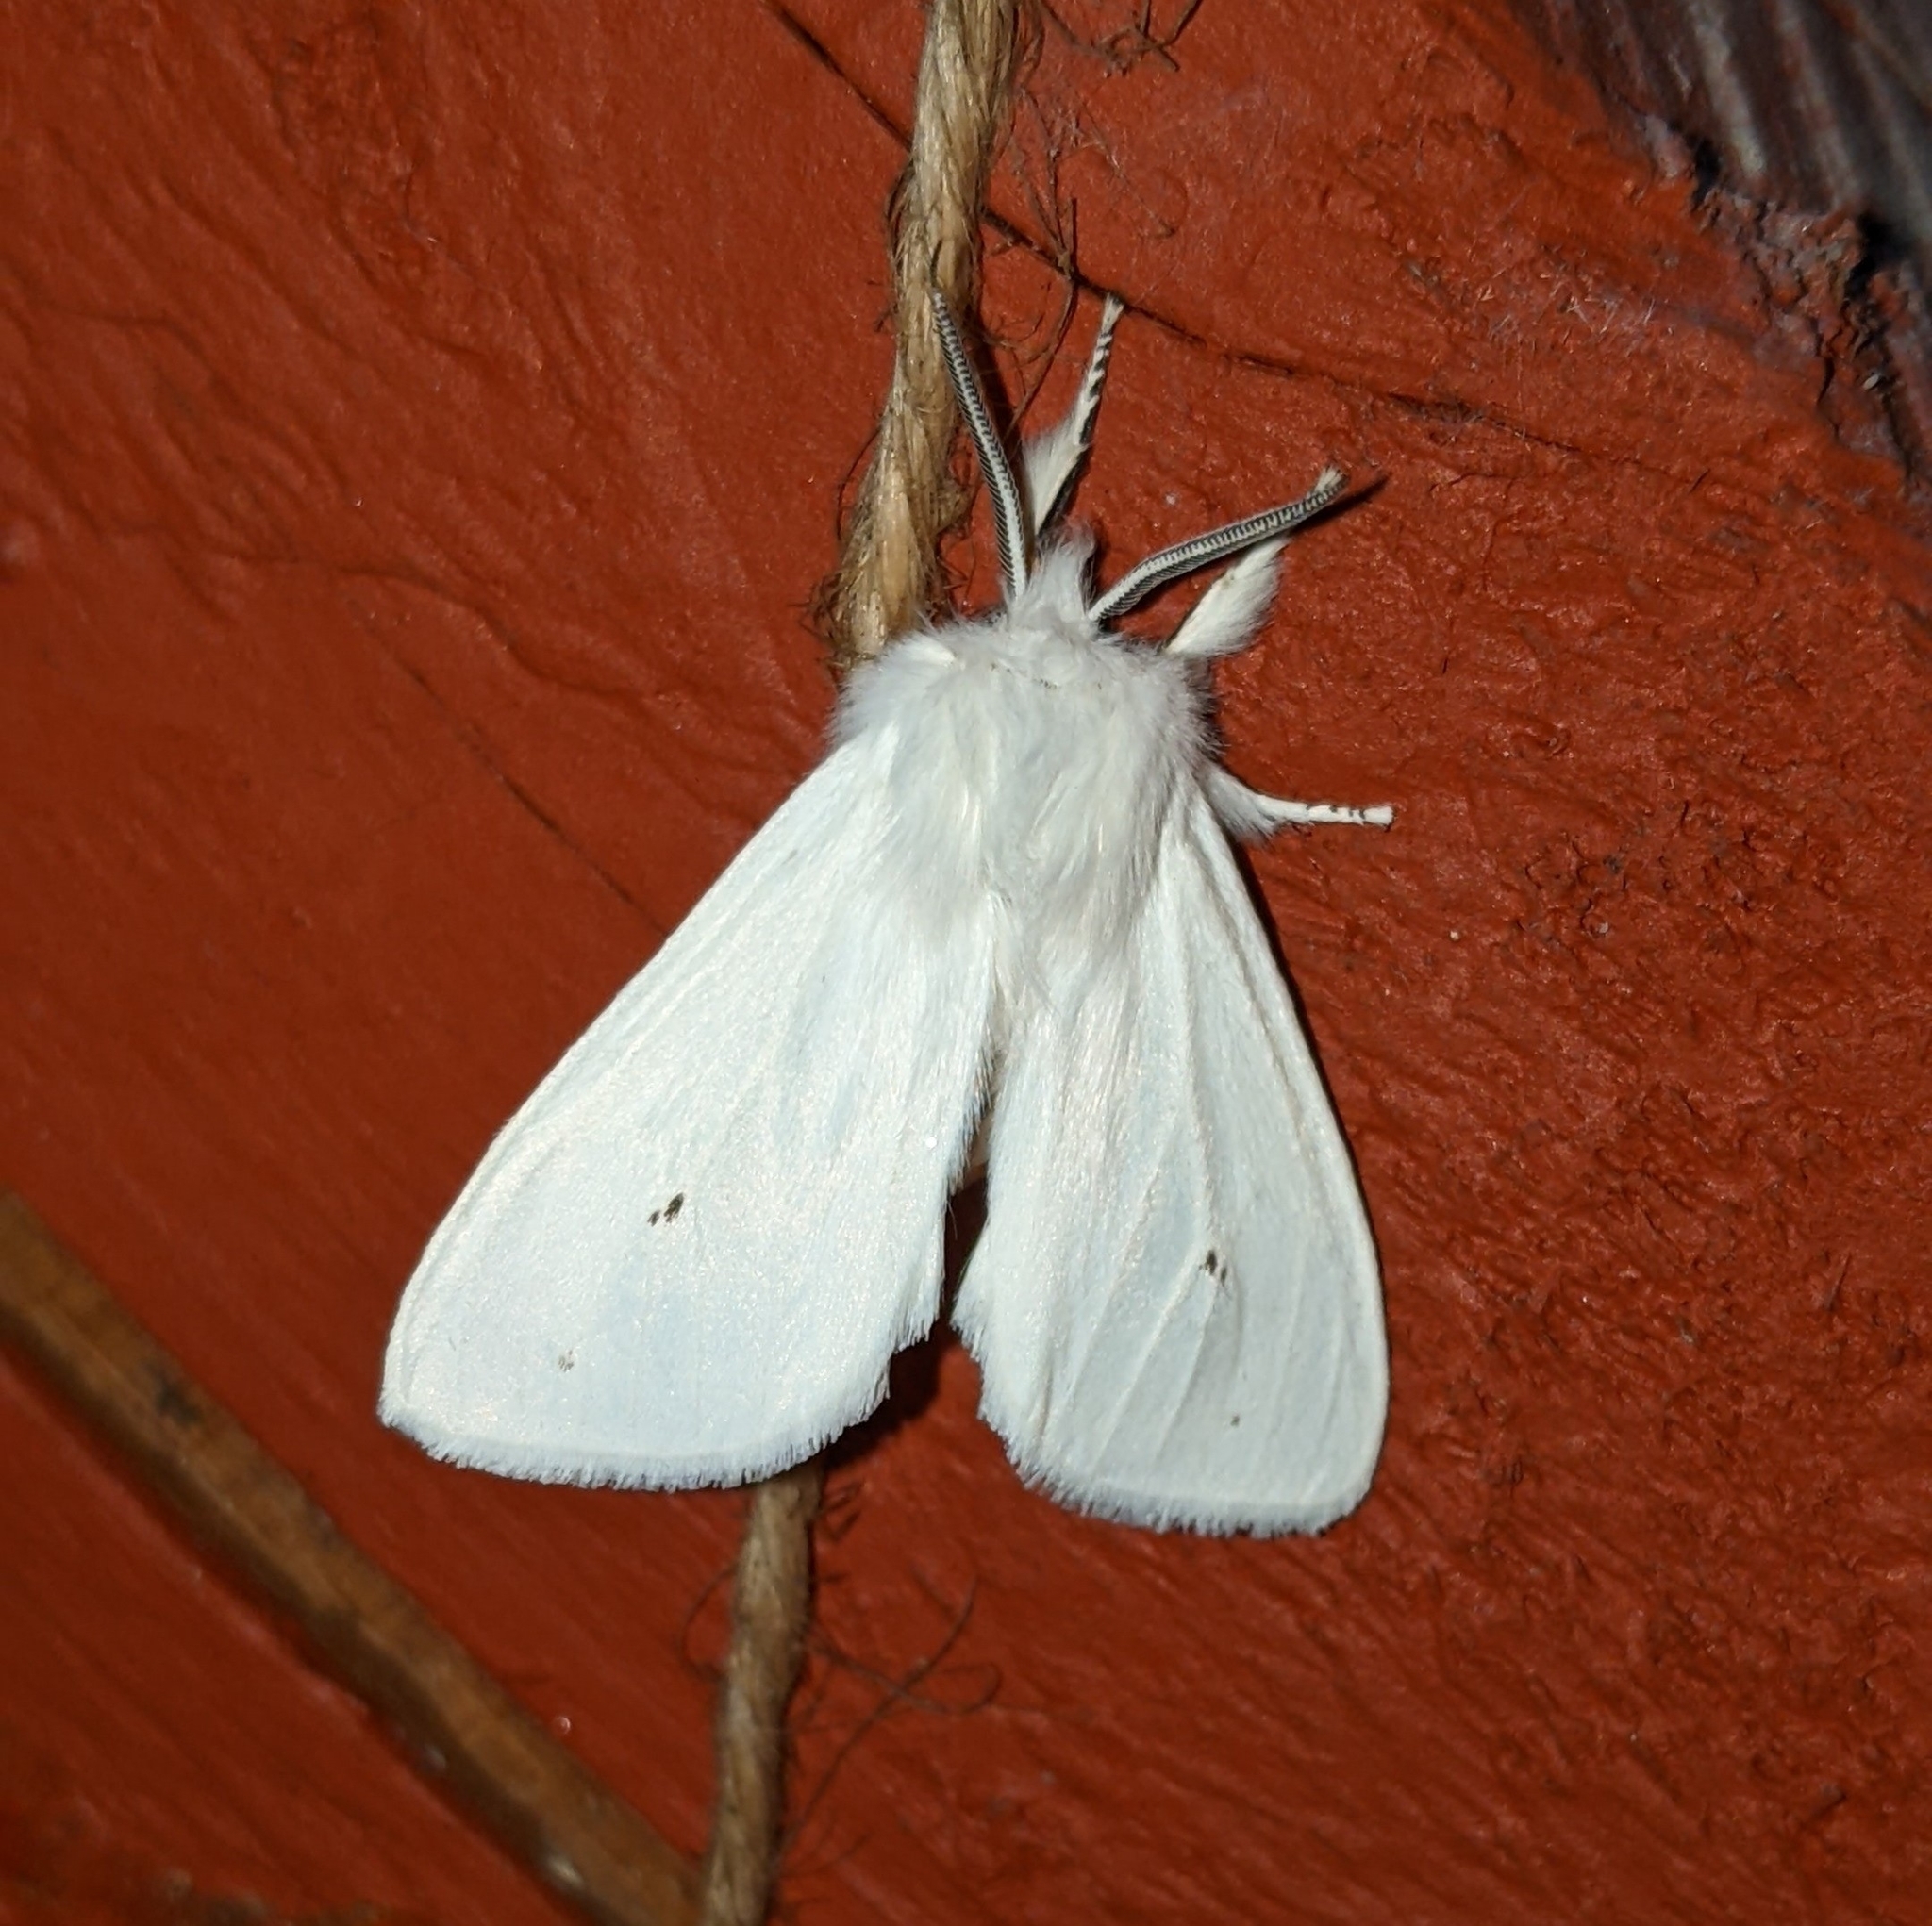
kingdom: Animalia
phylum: Arthropoda
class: Insecta
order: Lepidoptera
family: Erebidae
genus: Spilosoma
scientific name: Spilosoma virginica
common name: Virginia tiger moth
